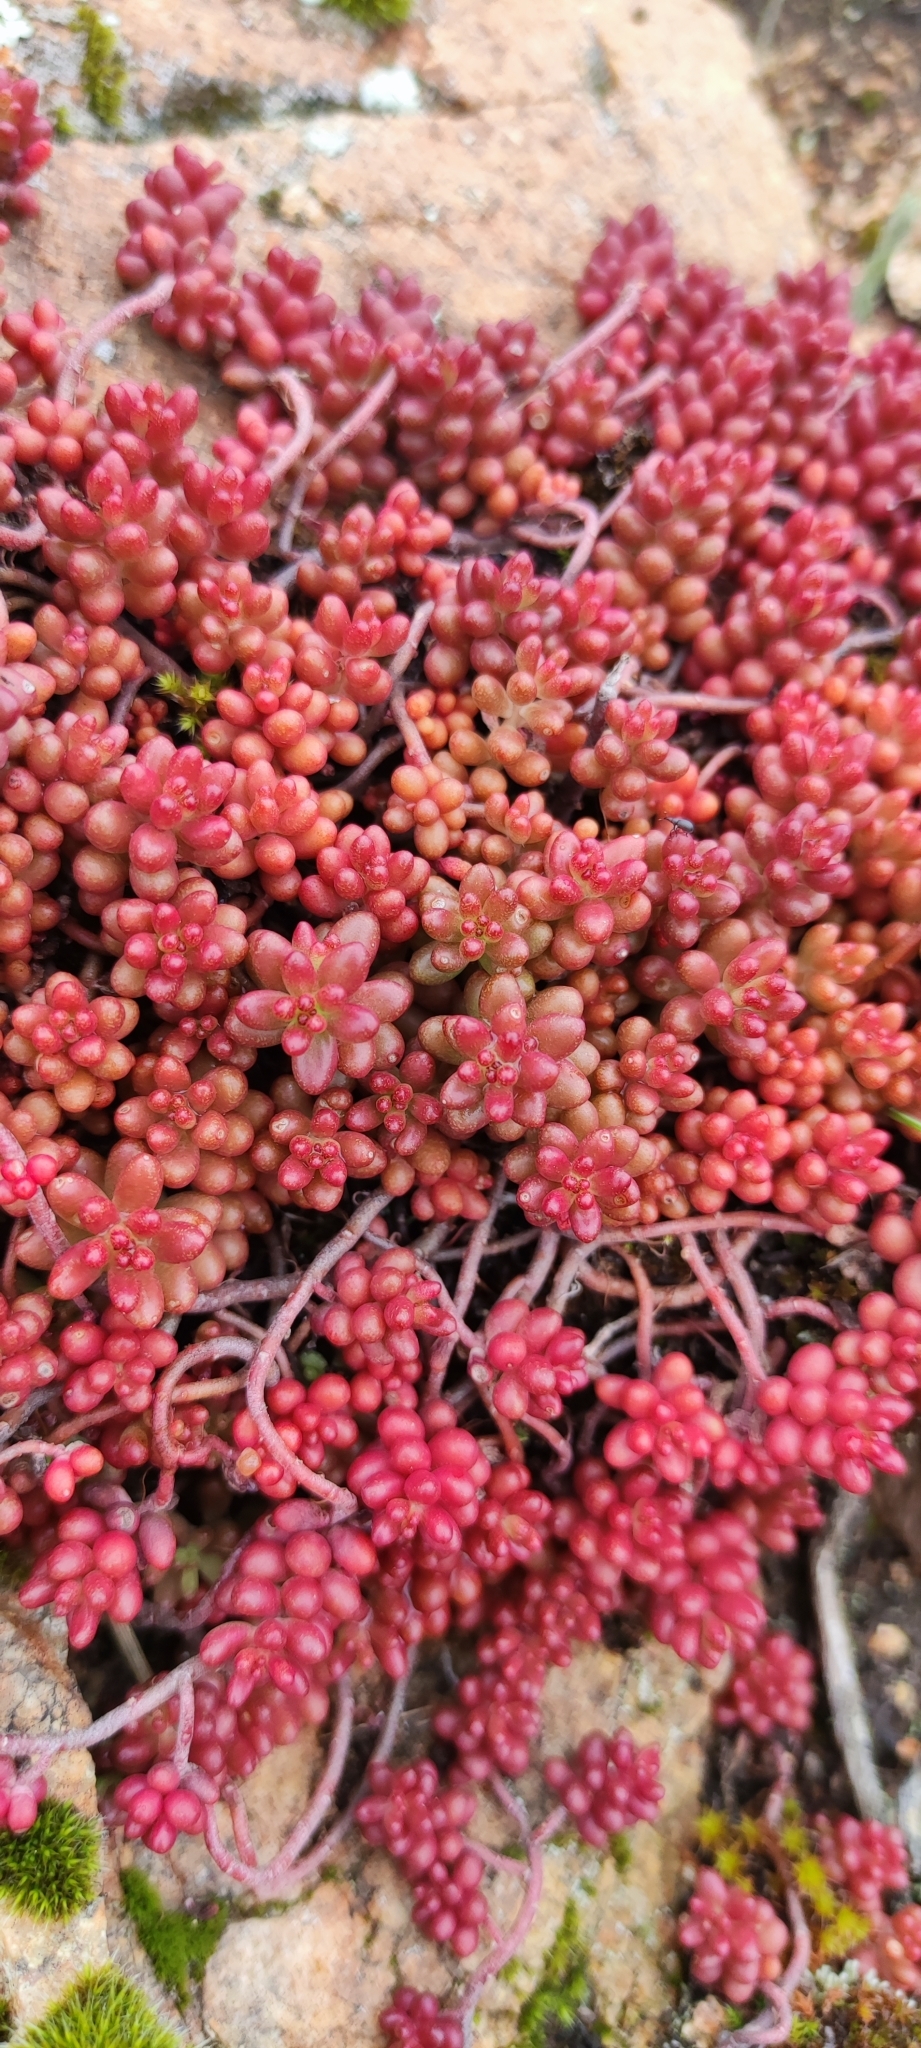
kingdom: Plantae
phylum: Tracheophyta
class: Magnoliopsida
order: Saxifragales
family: Crassulaceae
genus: Sedum
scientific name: Sedum album
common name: White stonecrop
